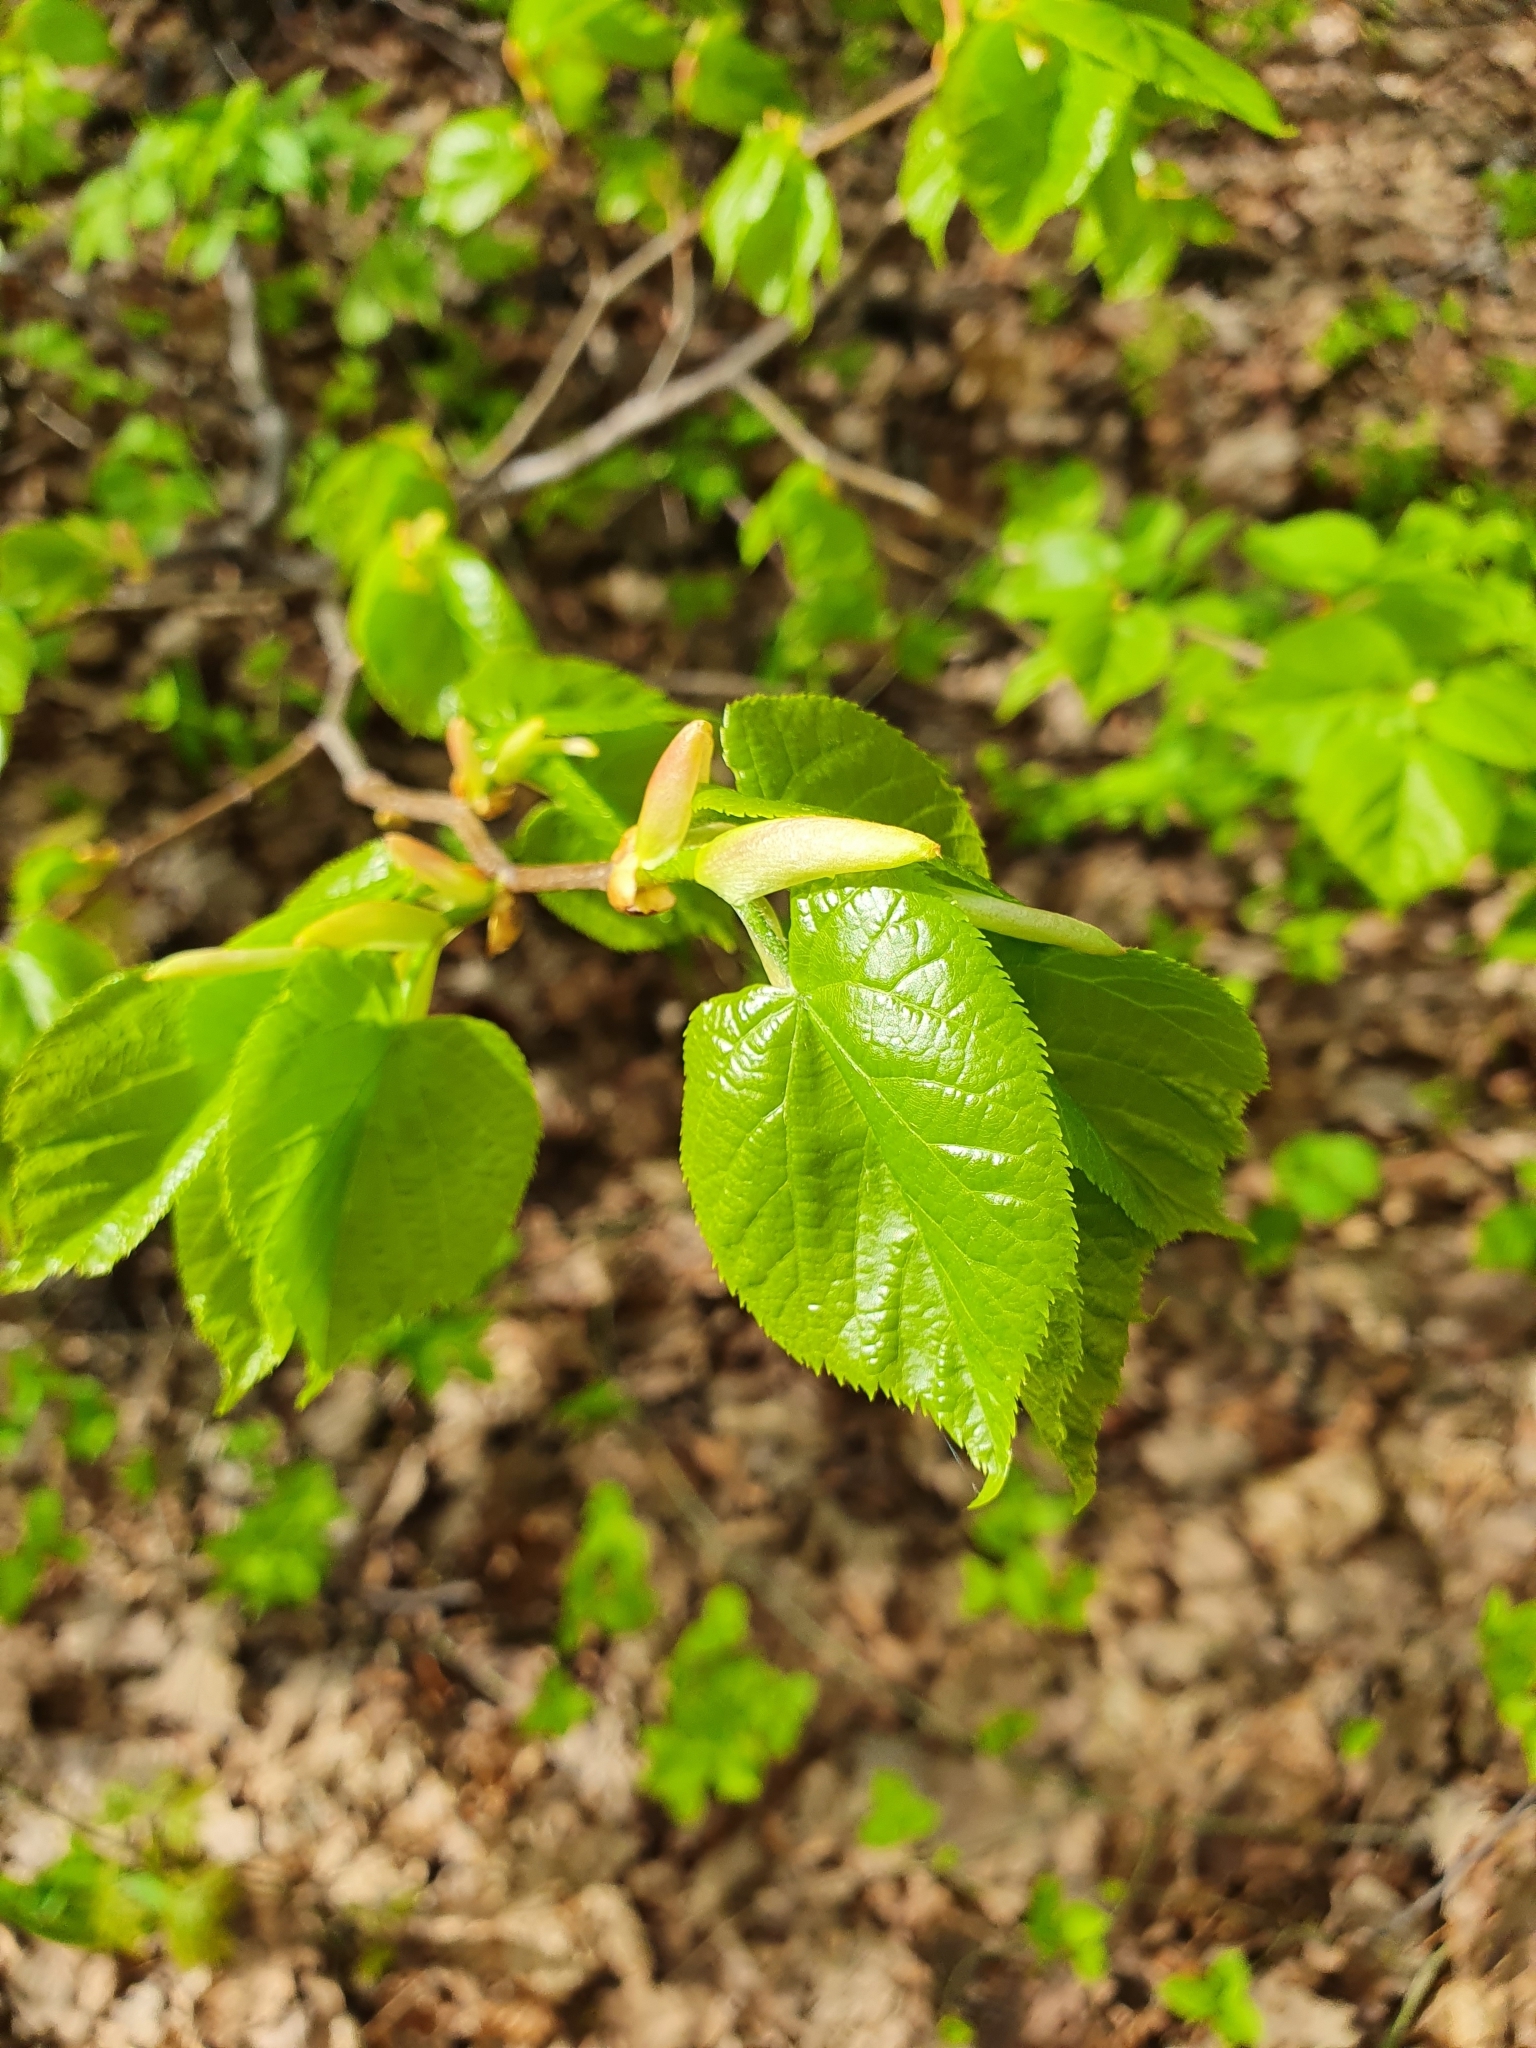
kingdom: Plantae
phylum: Tracheophyta
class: Magnoliopsida
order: Malvales
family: Malvaceae
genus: Tilia
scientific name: Tilia cordata
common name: Small-leaved lime
